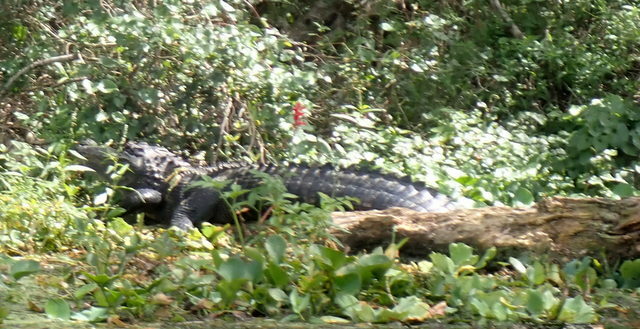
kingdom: Animalia
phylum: Chordata
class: Crocodylia
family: Alligatoridae
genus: Alligator
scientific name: Alligator mississippiensis
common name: American alligator
